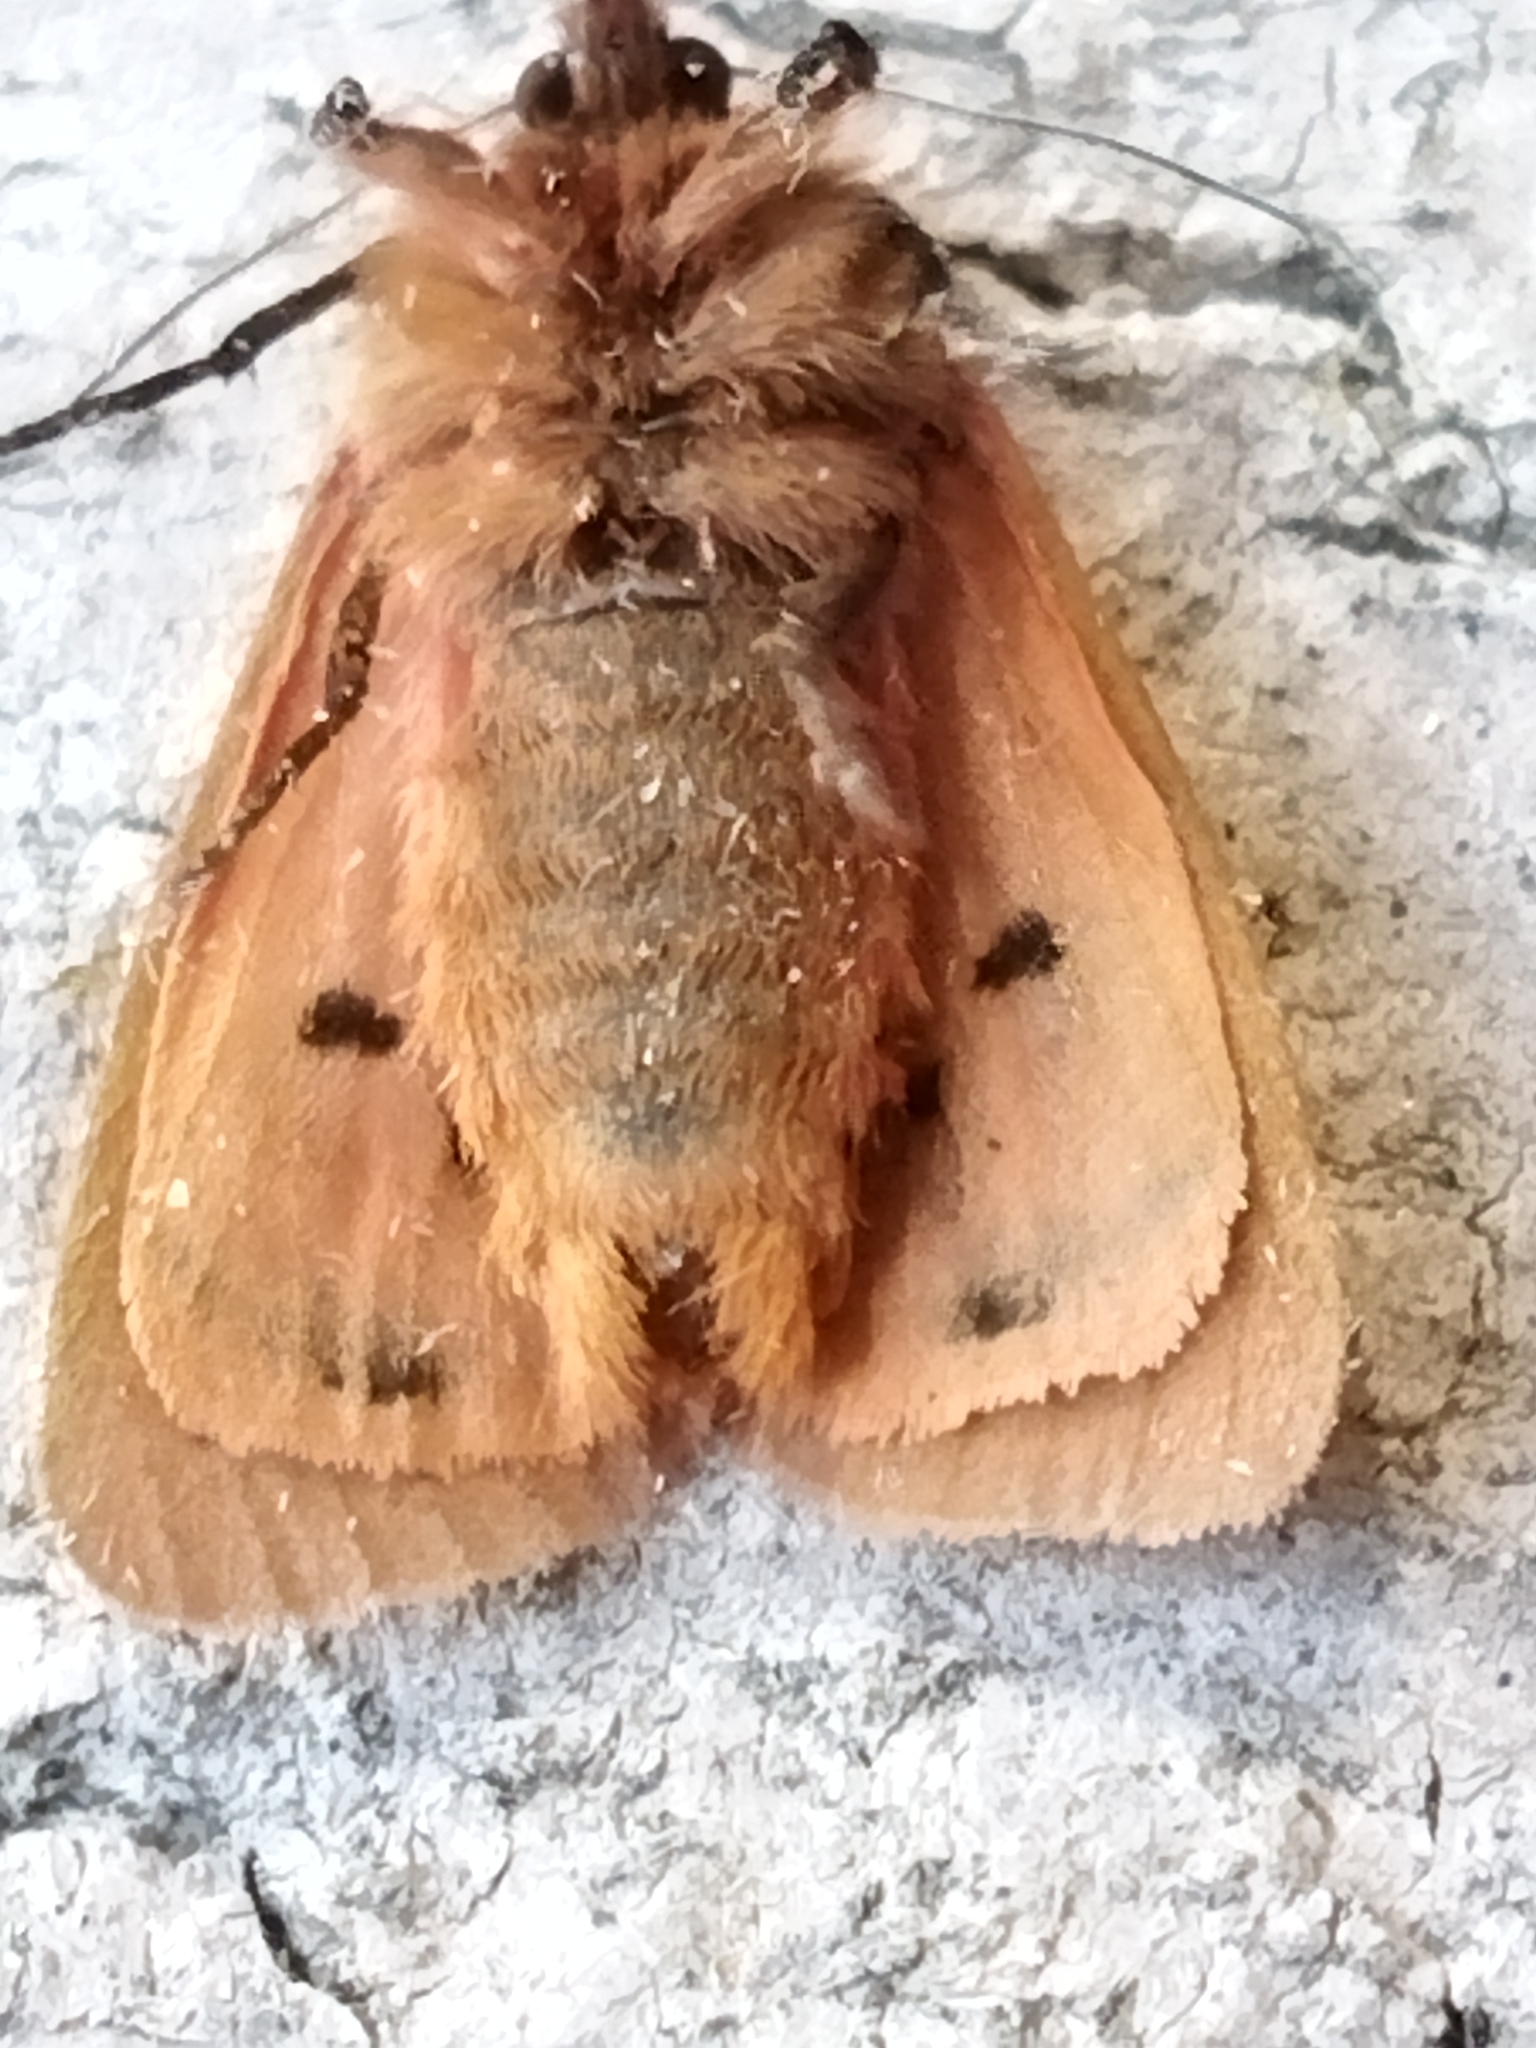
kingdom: Animalia
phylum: Arthropoda
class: Insecta
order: Lepidoptera
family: Erebidae
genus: Phragmatobia
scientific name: Phragmatobia fuliginosa
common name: Ruby tiger
